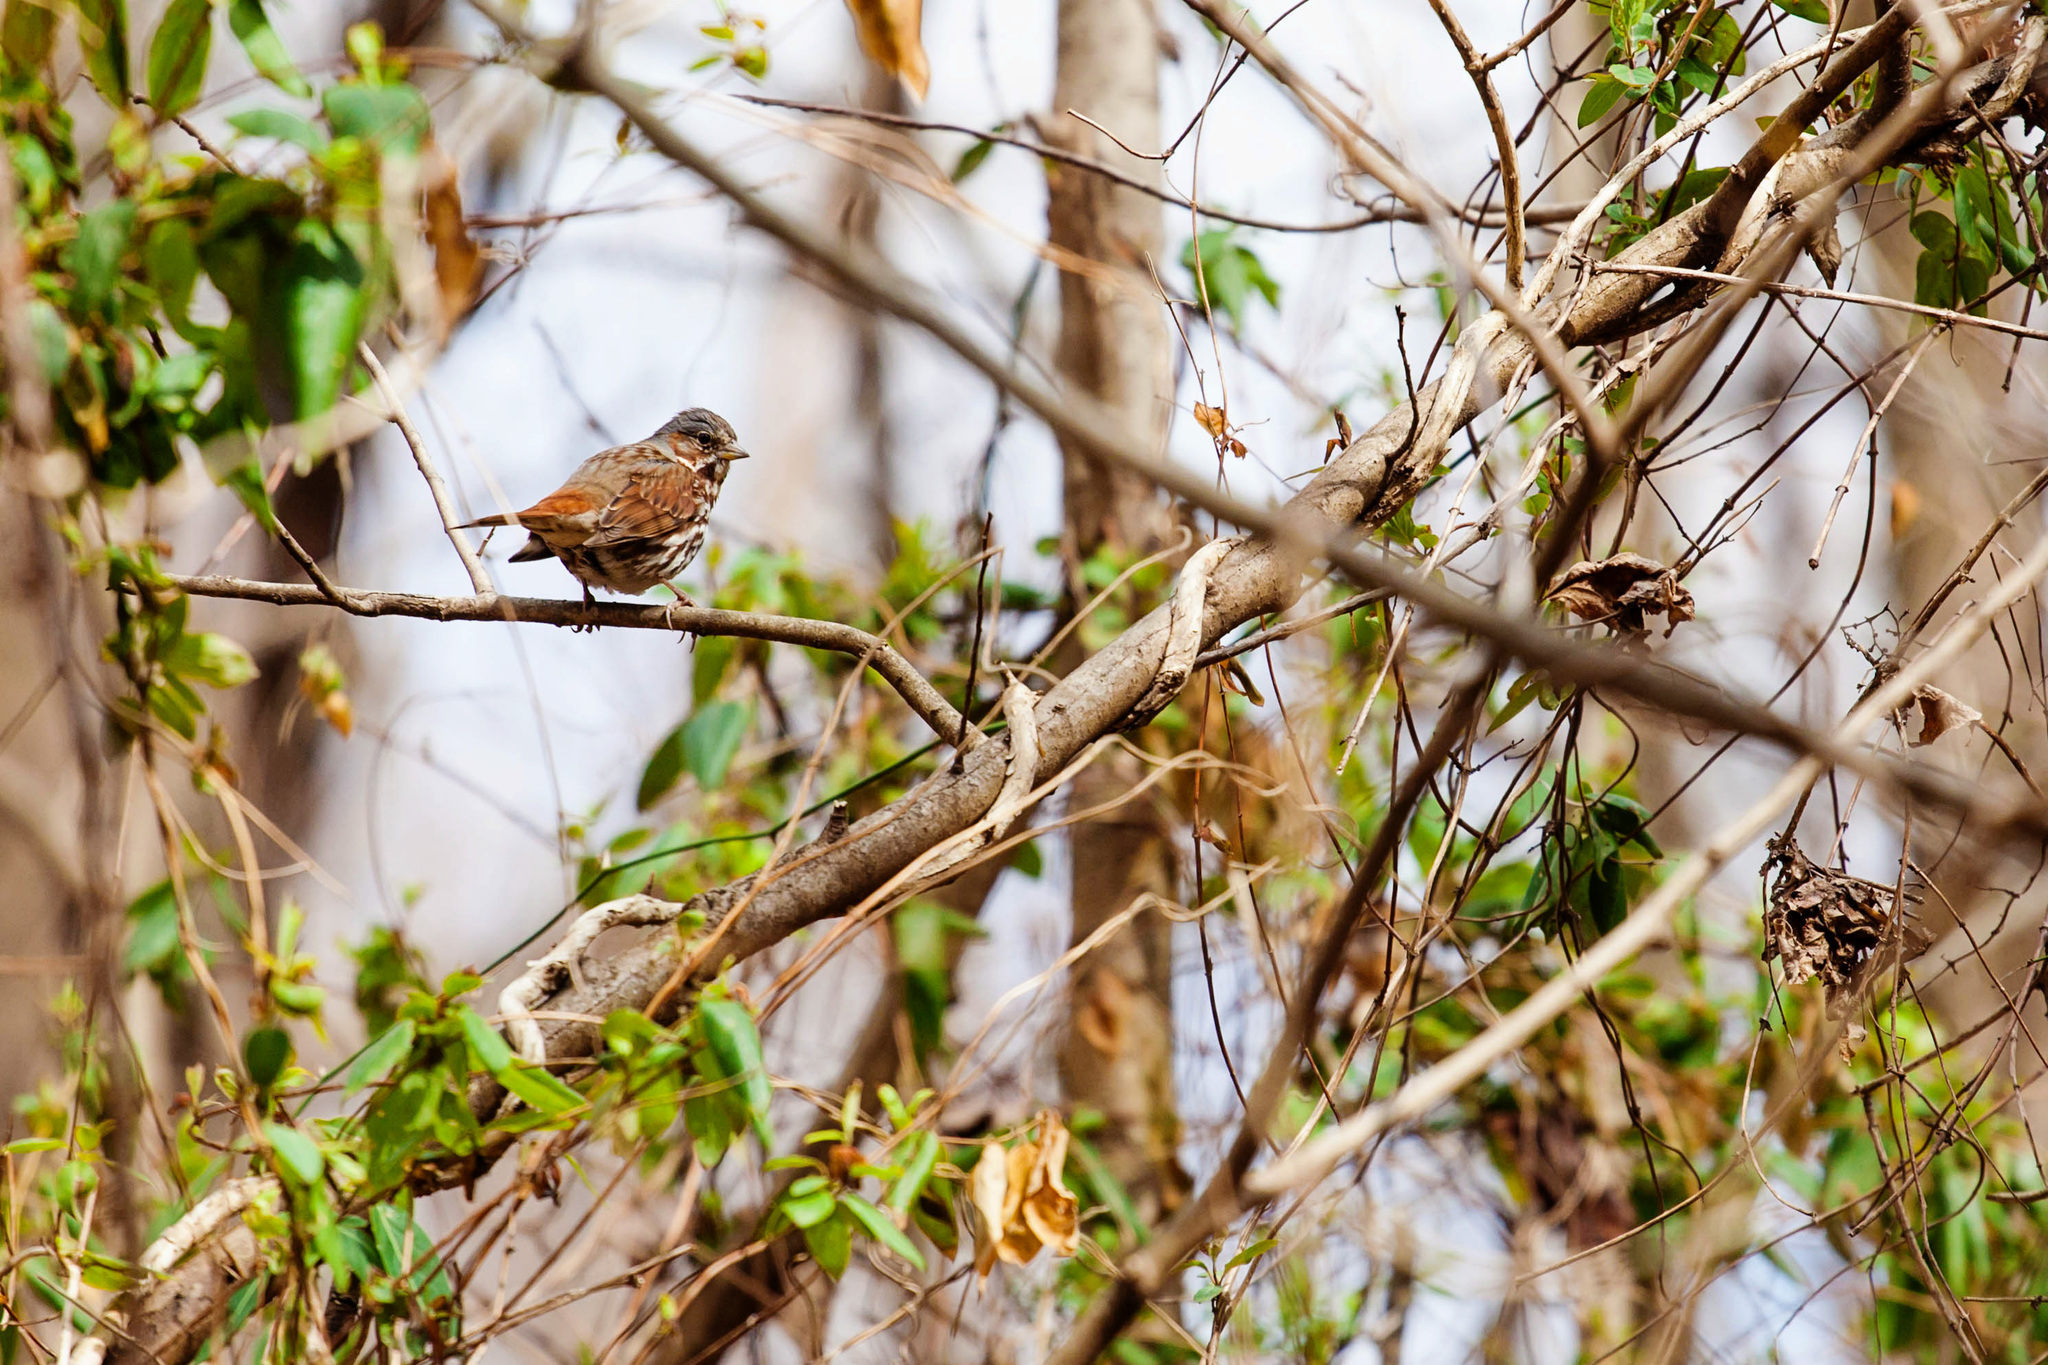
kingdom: Animalia
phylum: Chordata
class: Aves
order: Passeriformes
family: Passerellidae
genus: Passerella
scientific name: Passerella iliaca
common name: Fox sparrow
